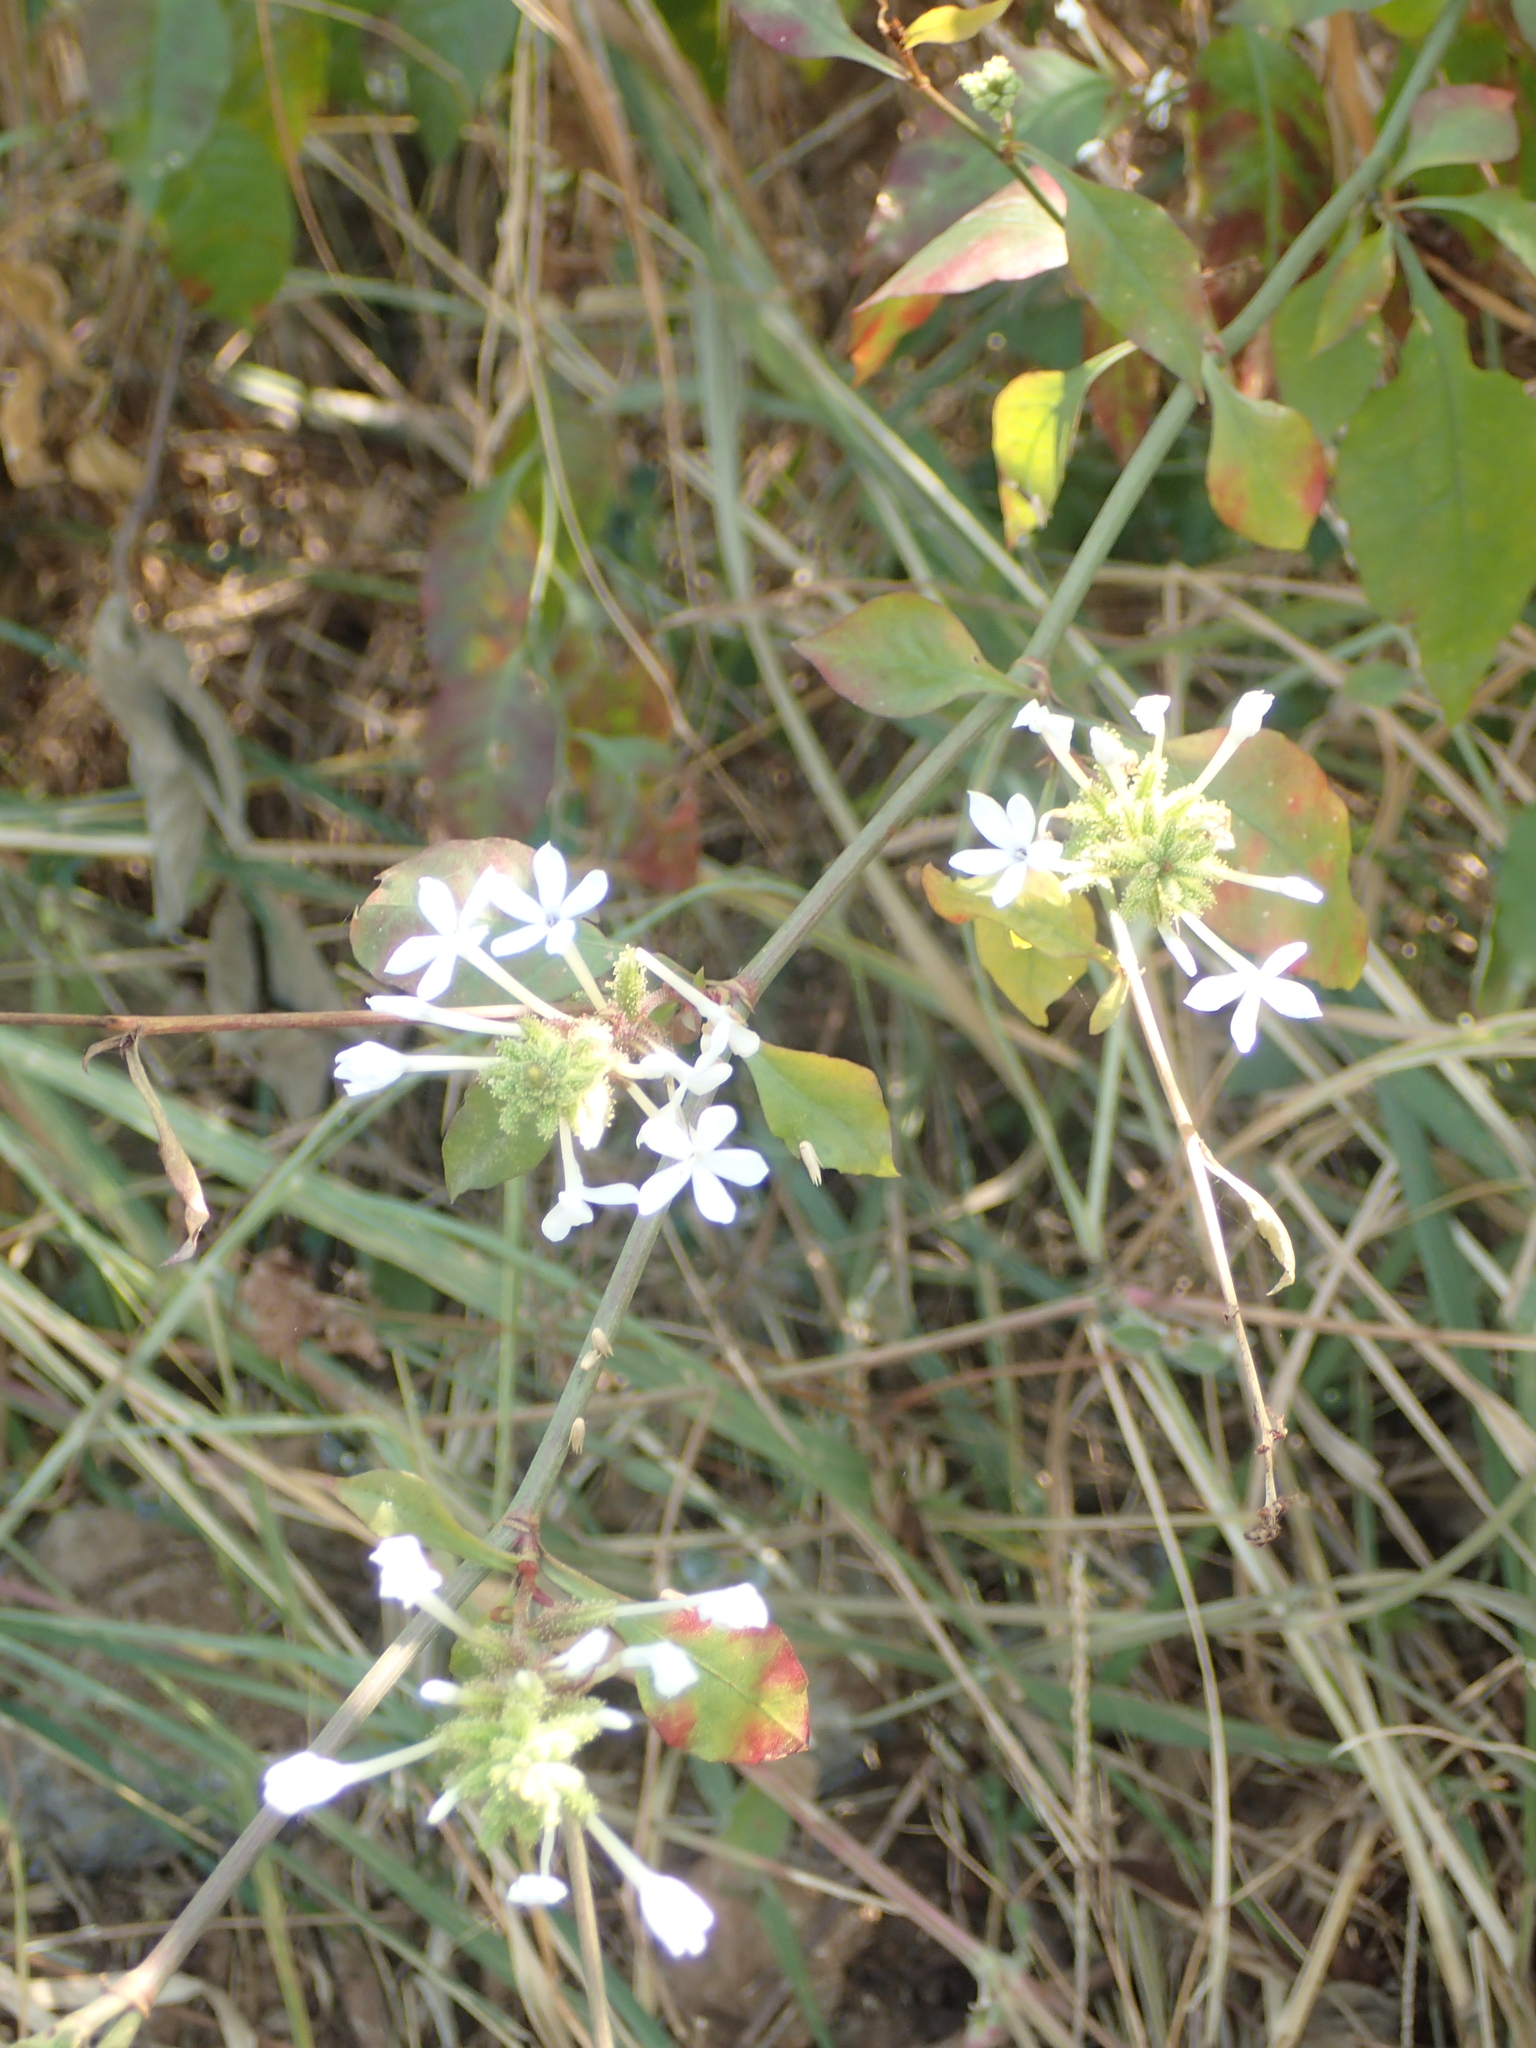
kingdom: Plantae
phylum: Tracheophyta
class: Magnoliopsida
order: Caryophyllales
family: Plumbaginaceae
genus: Plumbago
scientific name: Plumbago zeylanica
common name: Doctorbush
